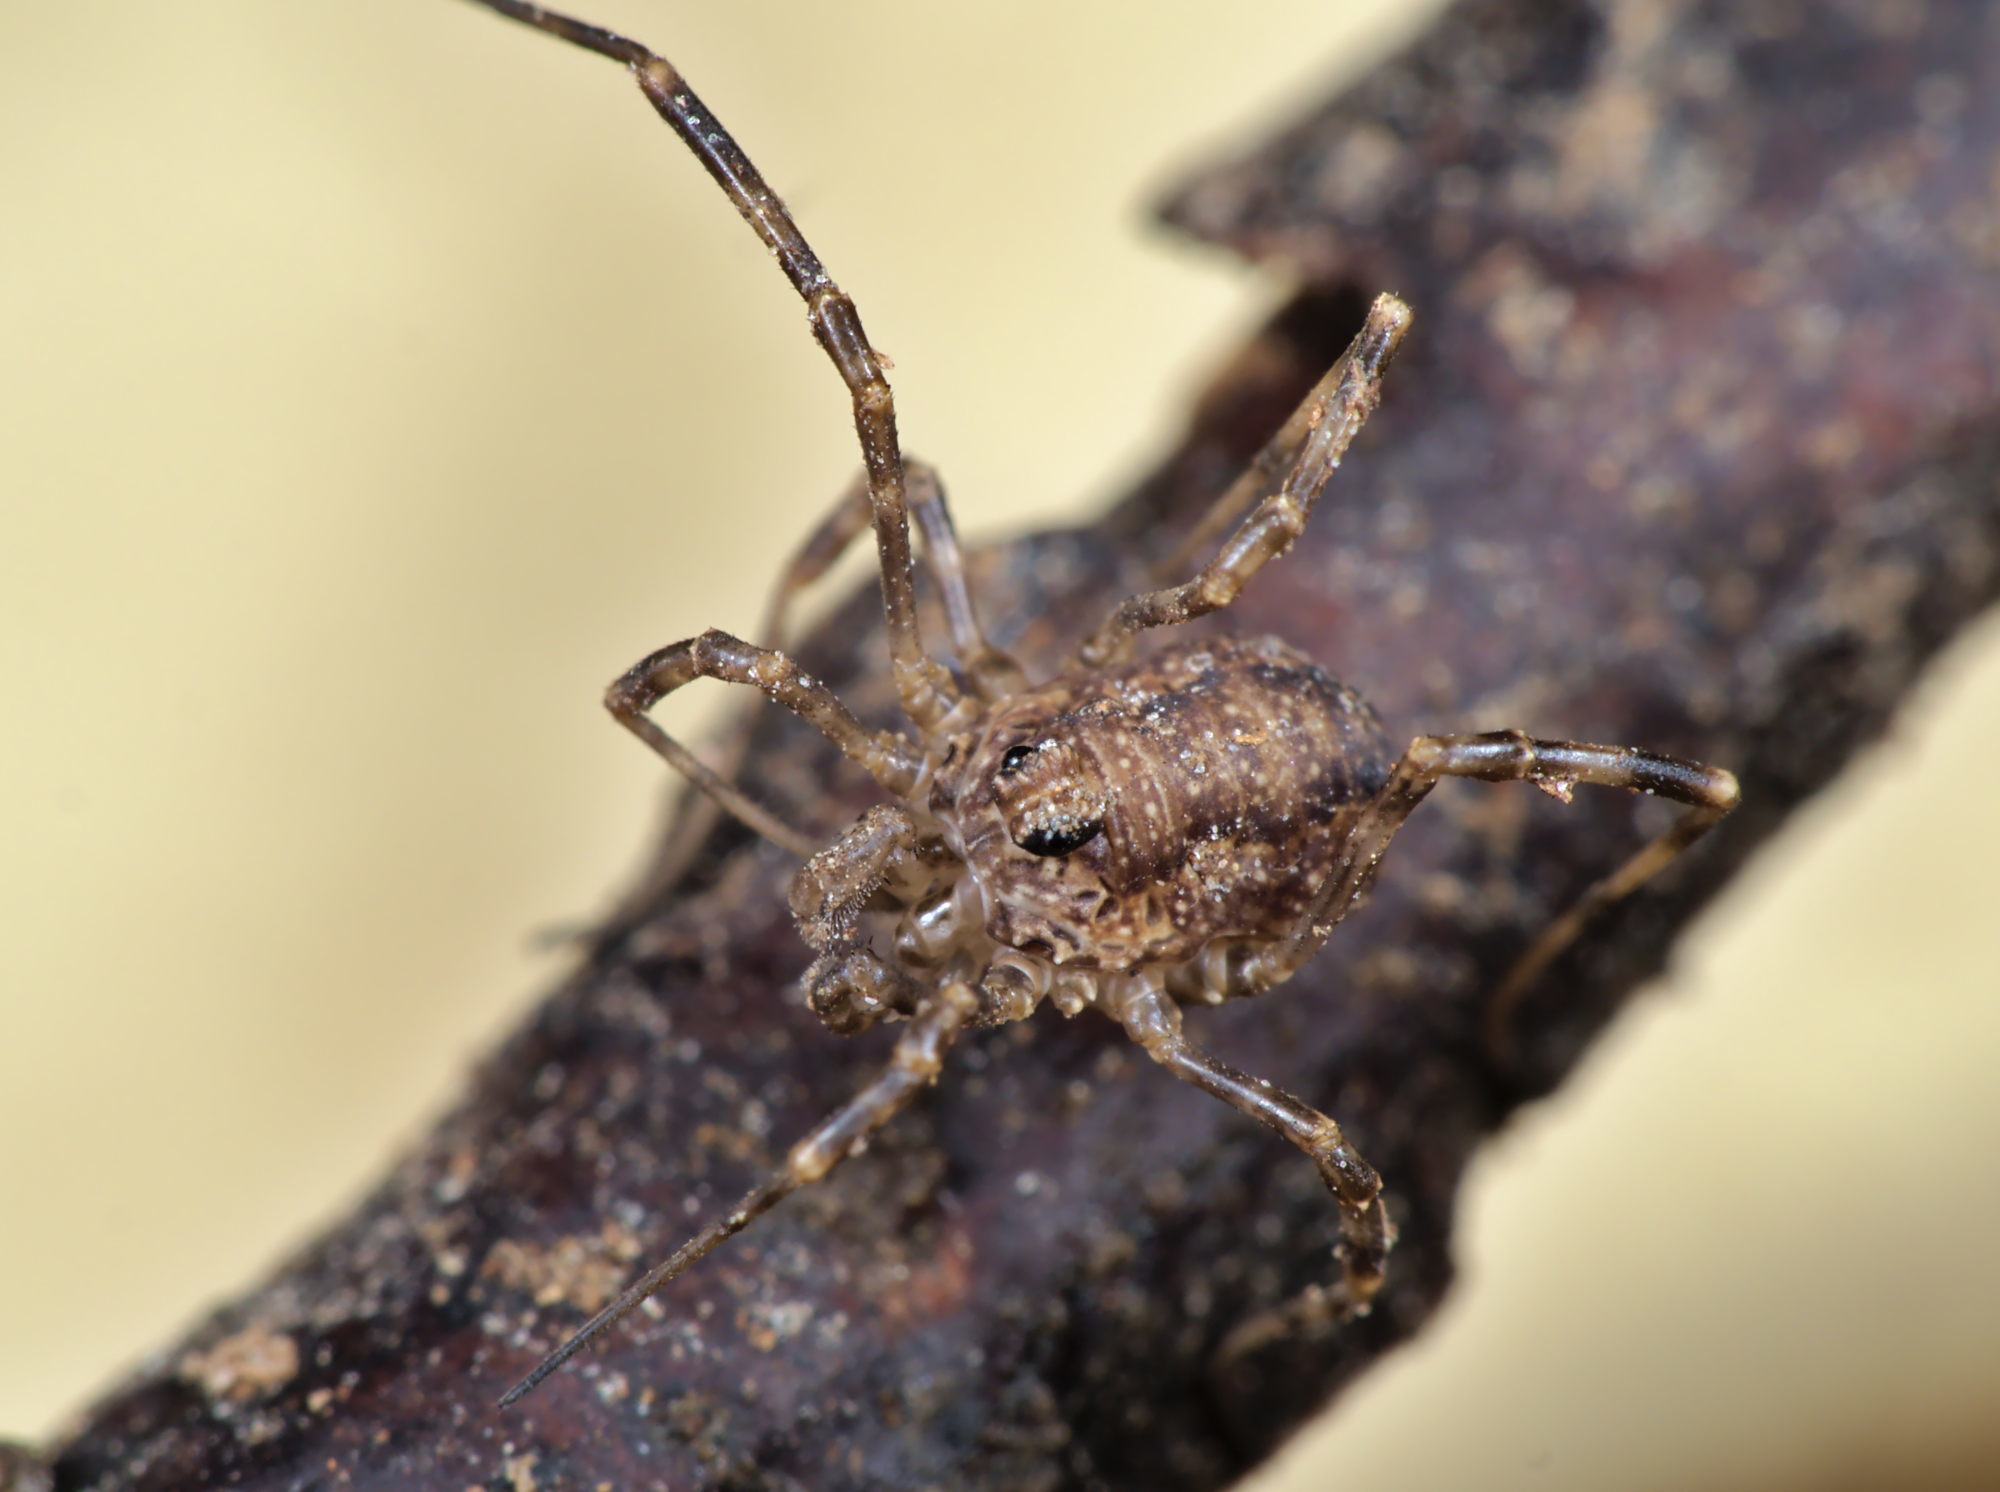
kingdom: Animalia
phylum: Arthropoda
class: Arachnida
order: Opiliones
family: Phalangiidae
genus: Rilaena
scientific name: Rilaena triangularis
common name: Spring harvestman
